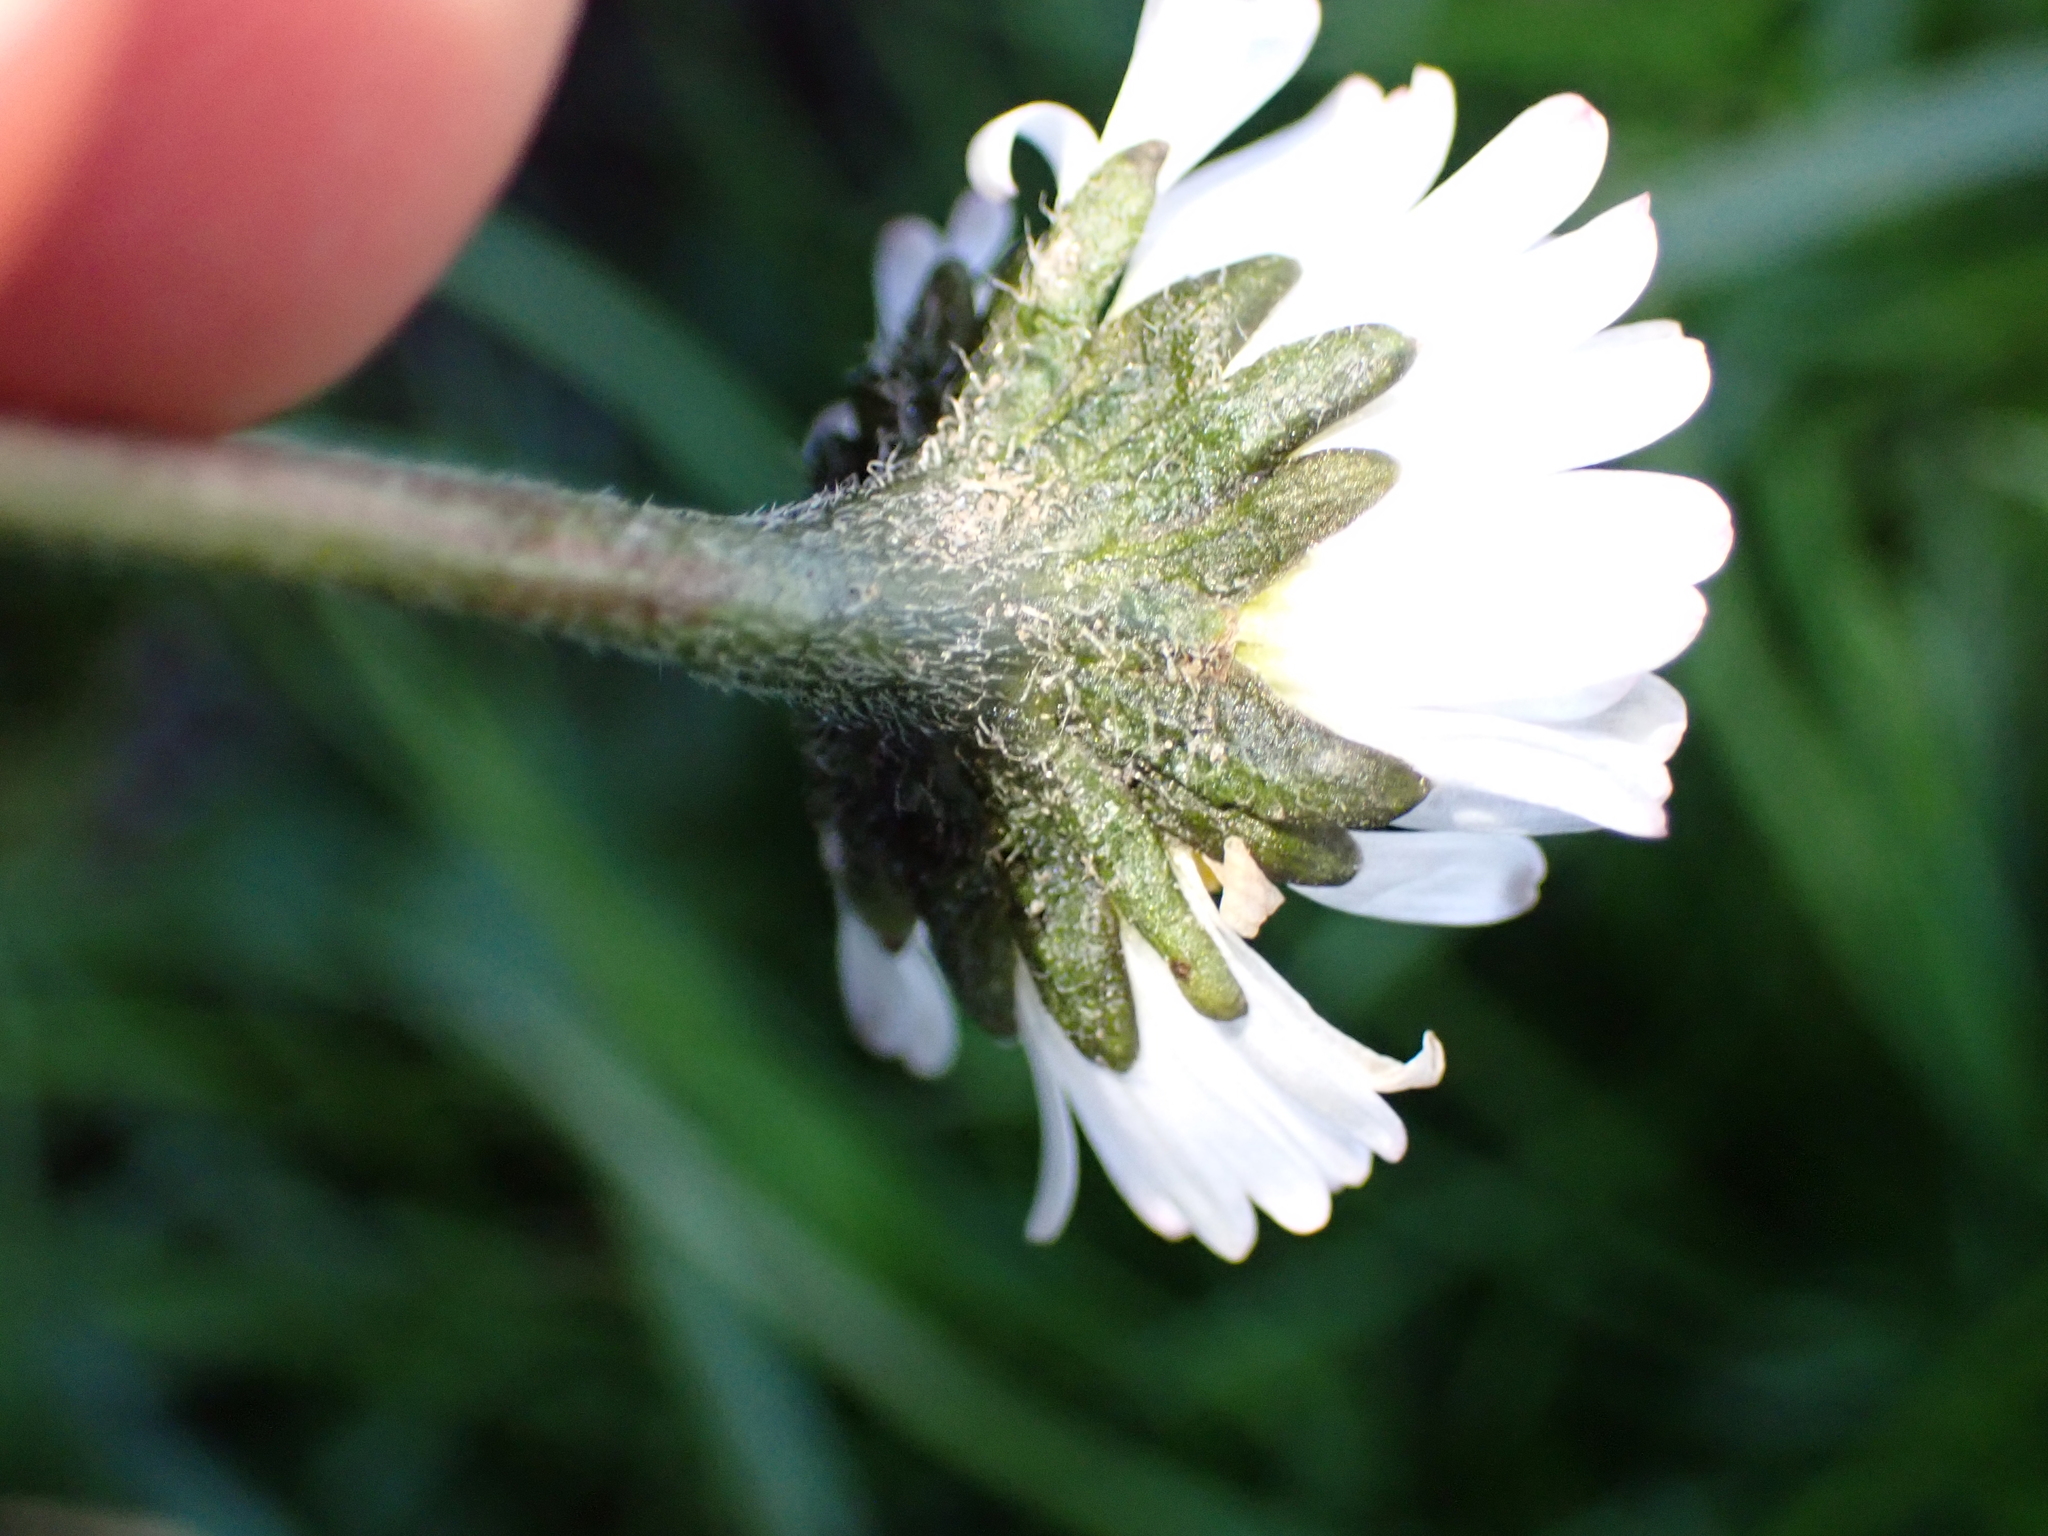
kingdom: Plantae
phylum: Tracheophyta
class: Magnoliopsida
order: Asterales
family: Asteraceae
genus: Bellis
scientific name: Bellis perennis
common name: Lawndaisy
